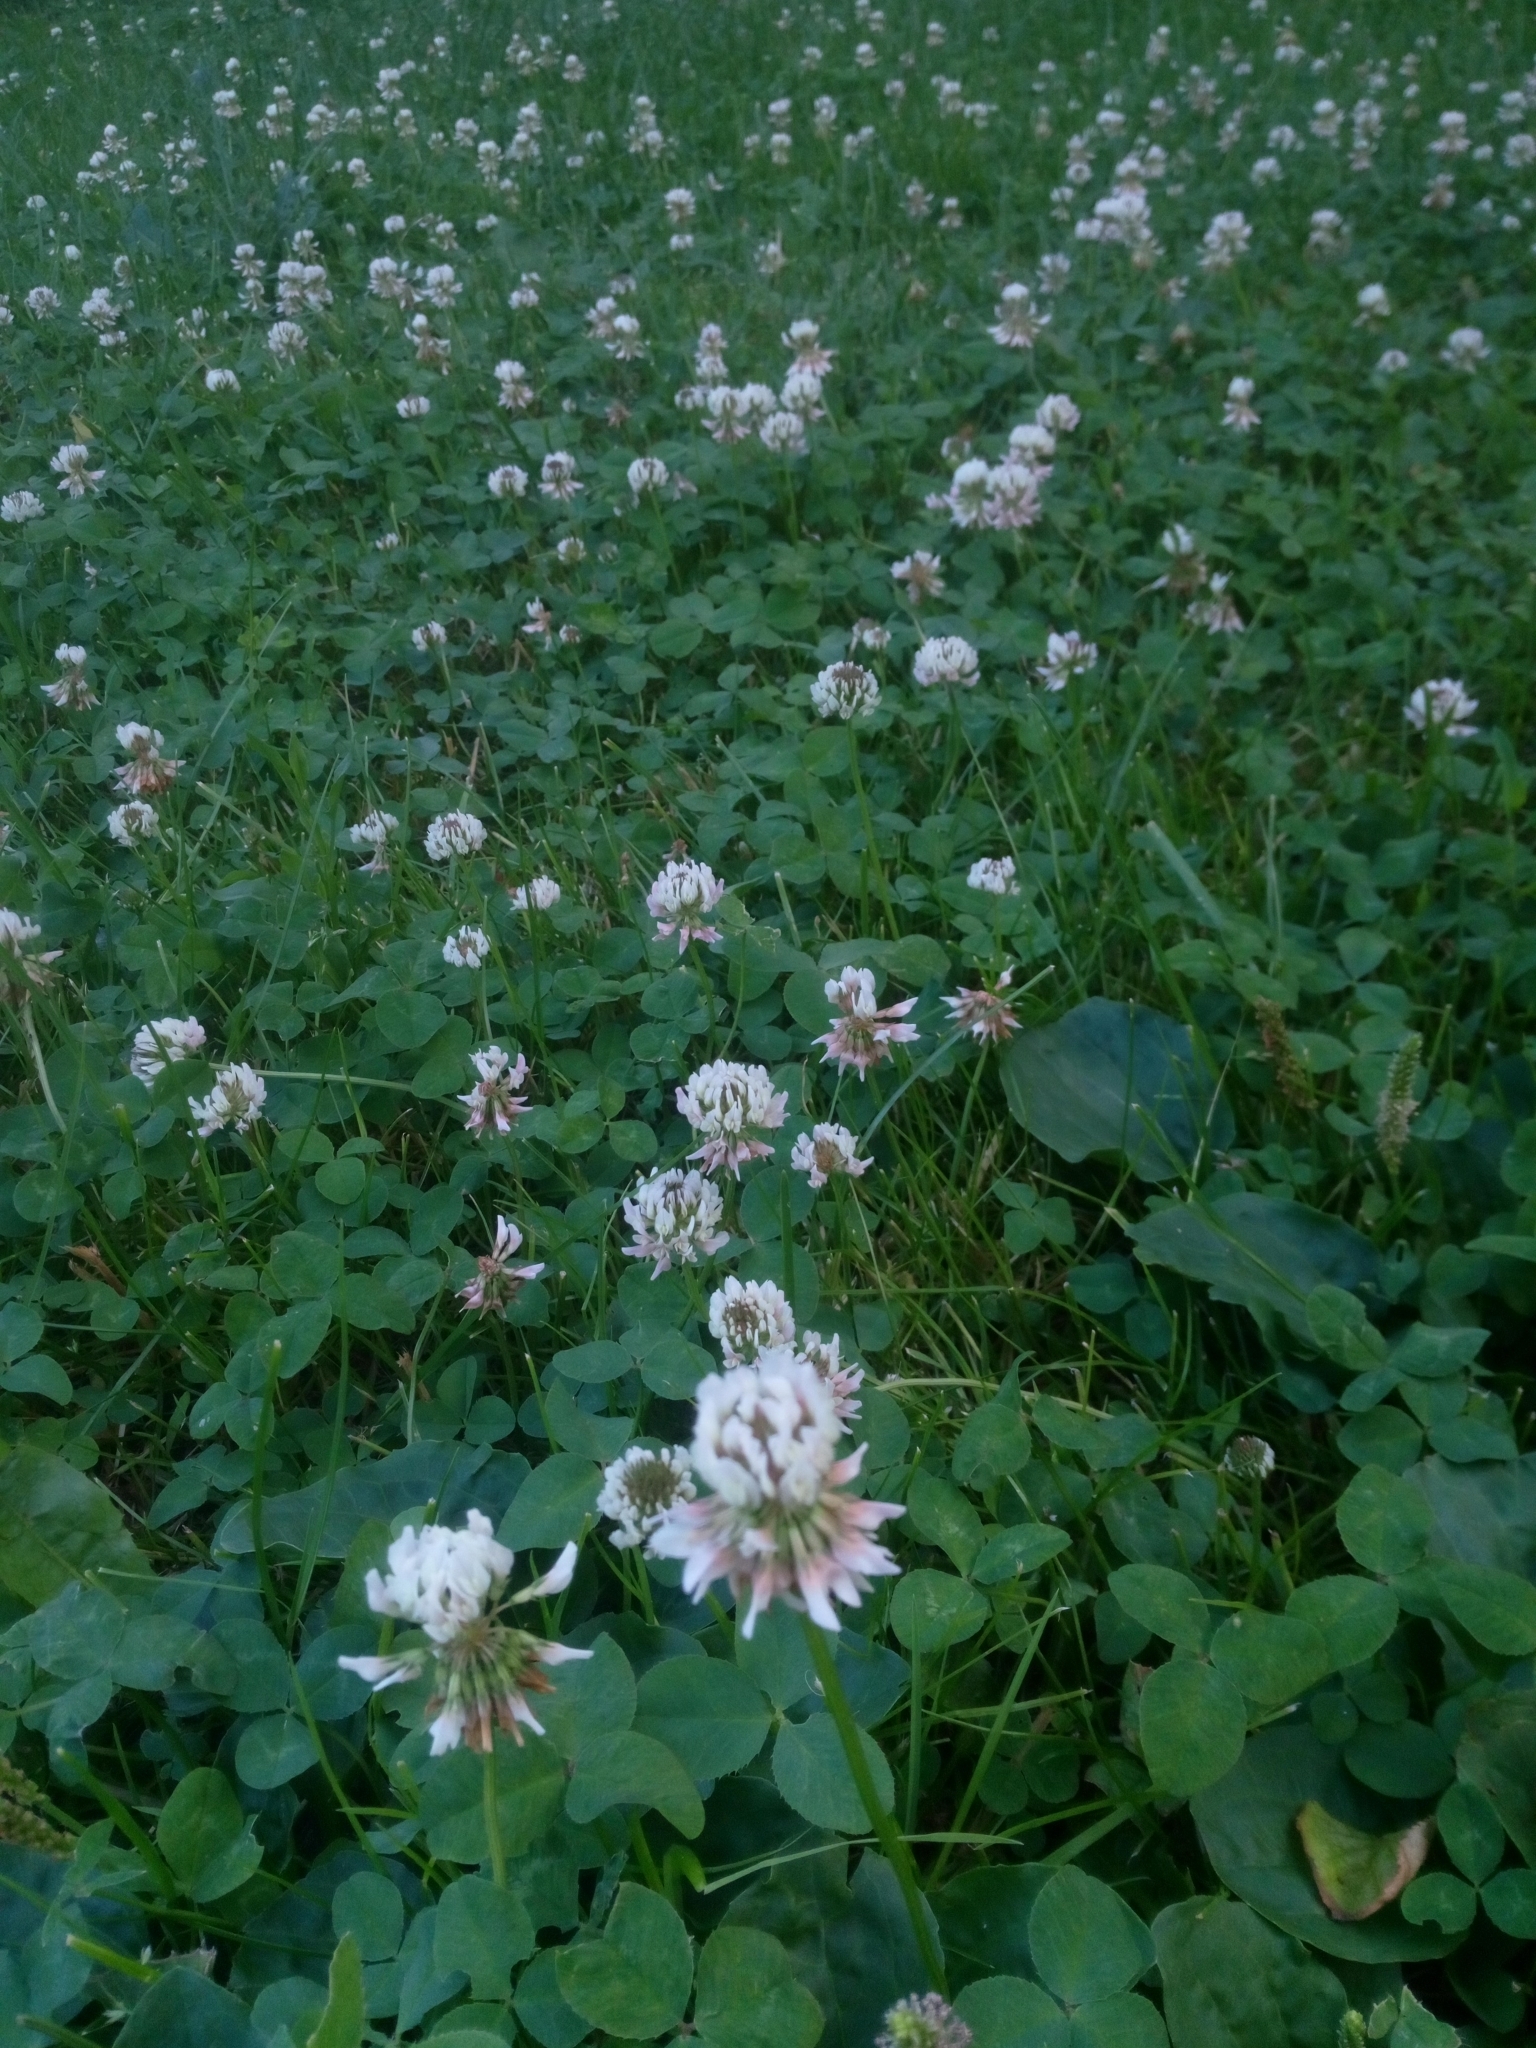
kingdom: Plantae
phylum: Tracheophyta
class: Magnoliopsida
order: Fabales
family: Fabaceae
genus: Trifolium
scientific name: Trifolium repens
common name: White clover
